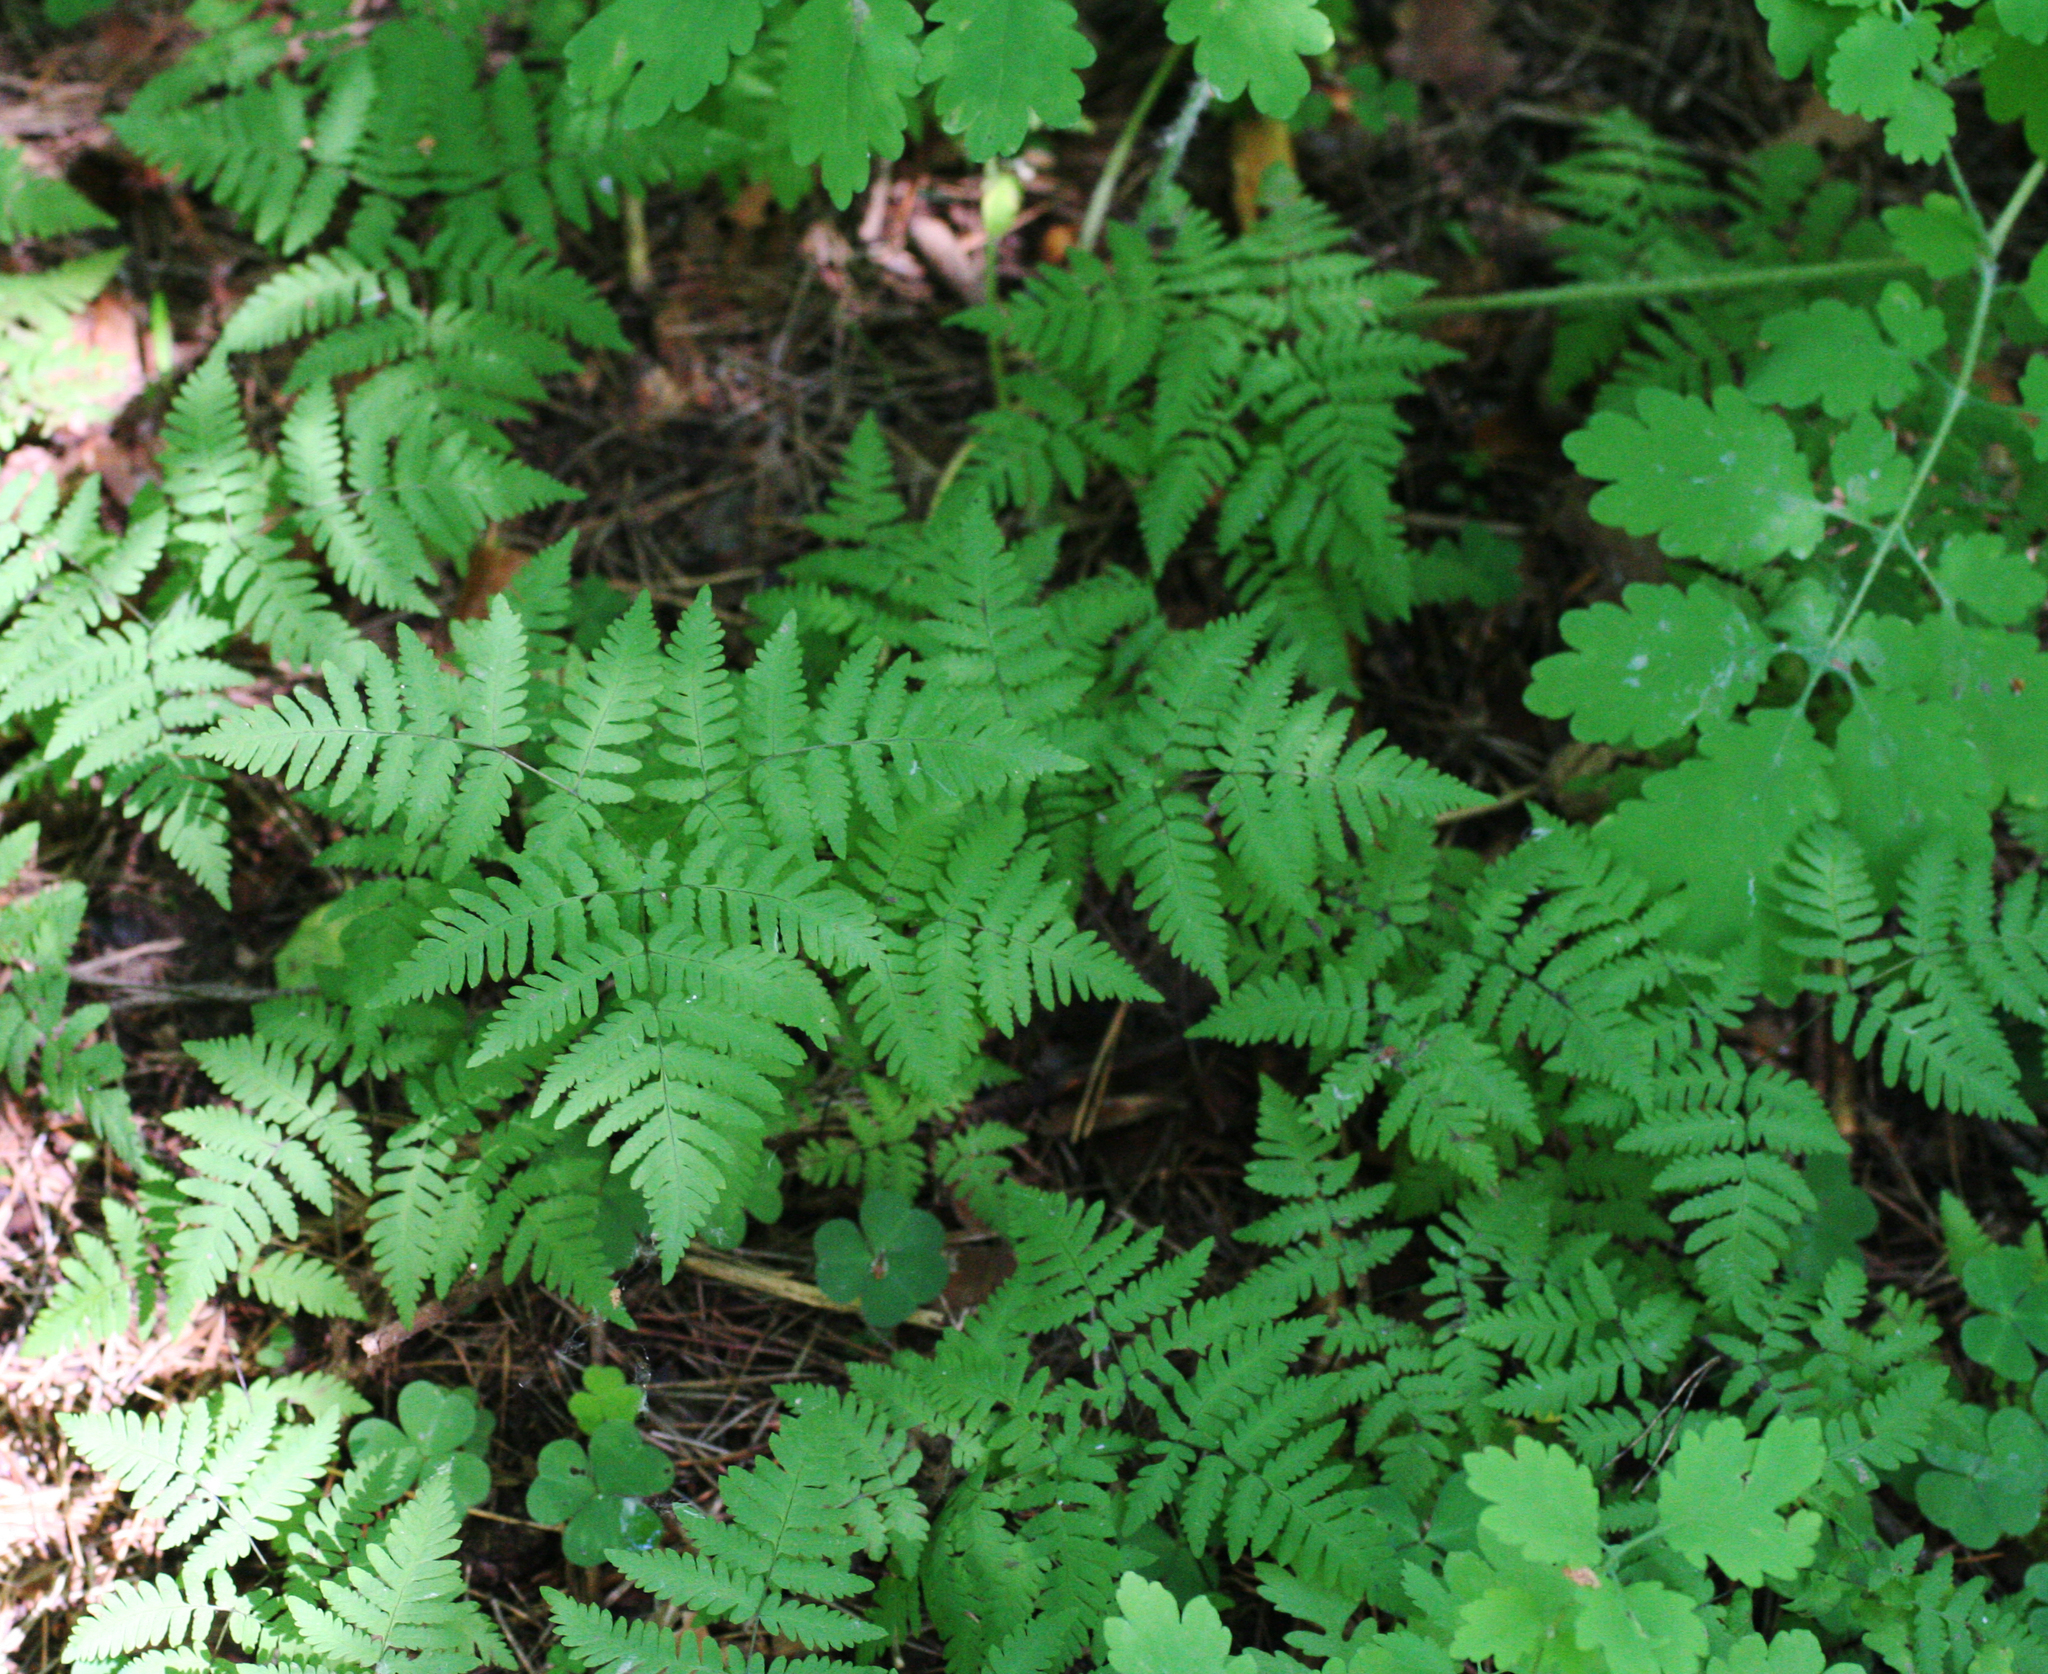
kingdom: Plantae
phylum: Tracheophyta
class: Polypodiopsida
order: Polypodiales
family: Cystopteridaceae
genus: Gymnocarpium
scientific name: Gymnocarpium dryopteris
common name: Oak fern
